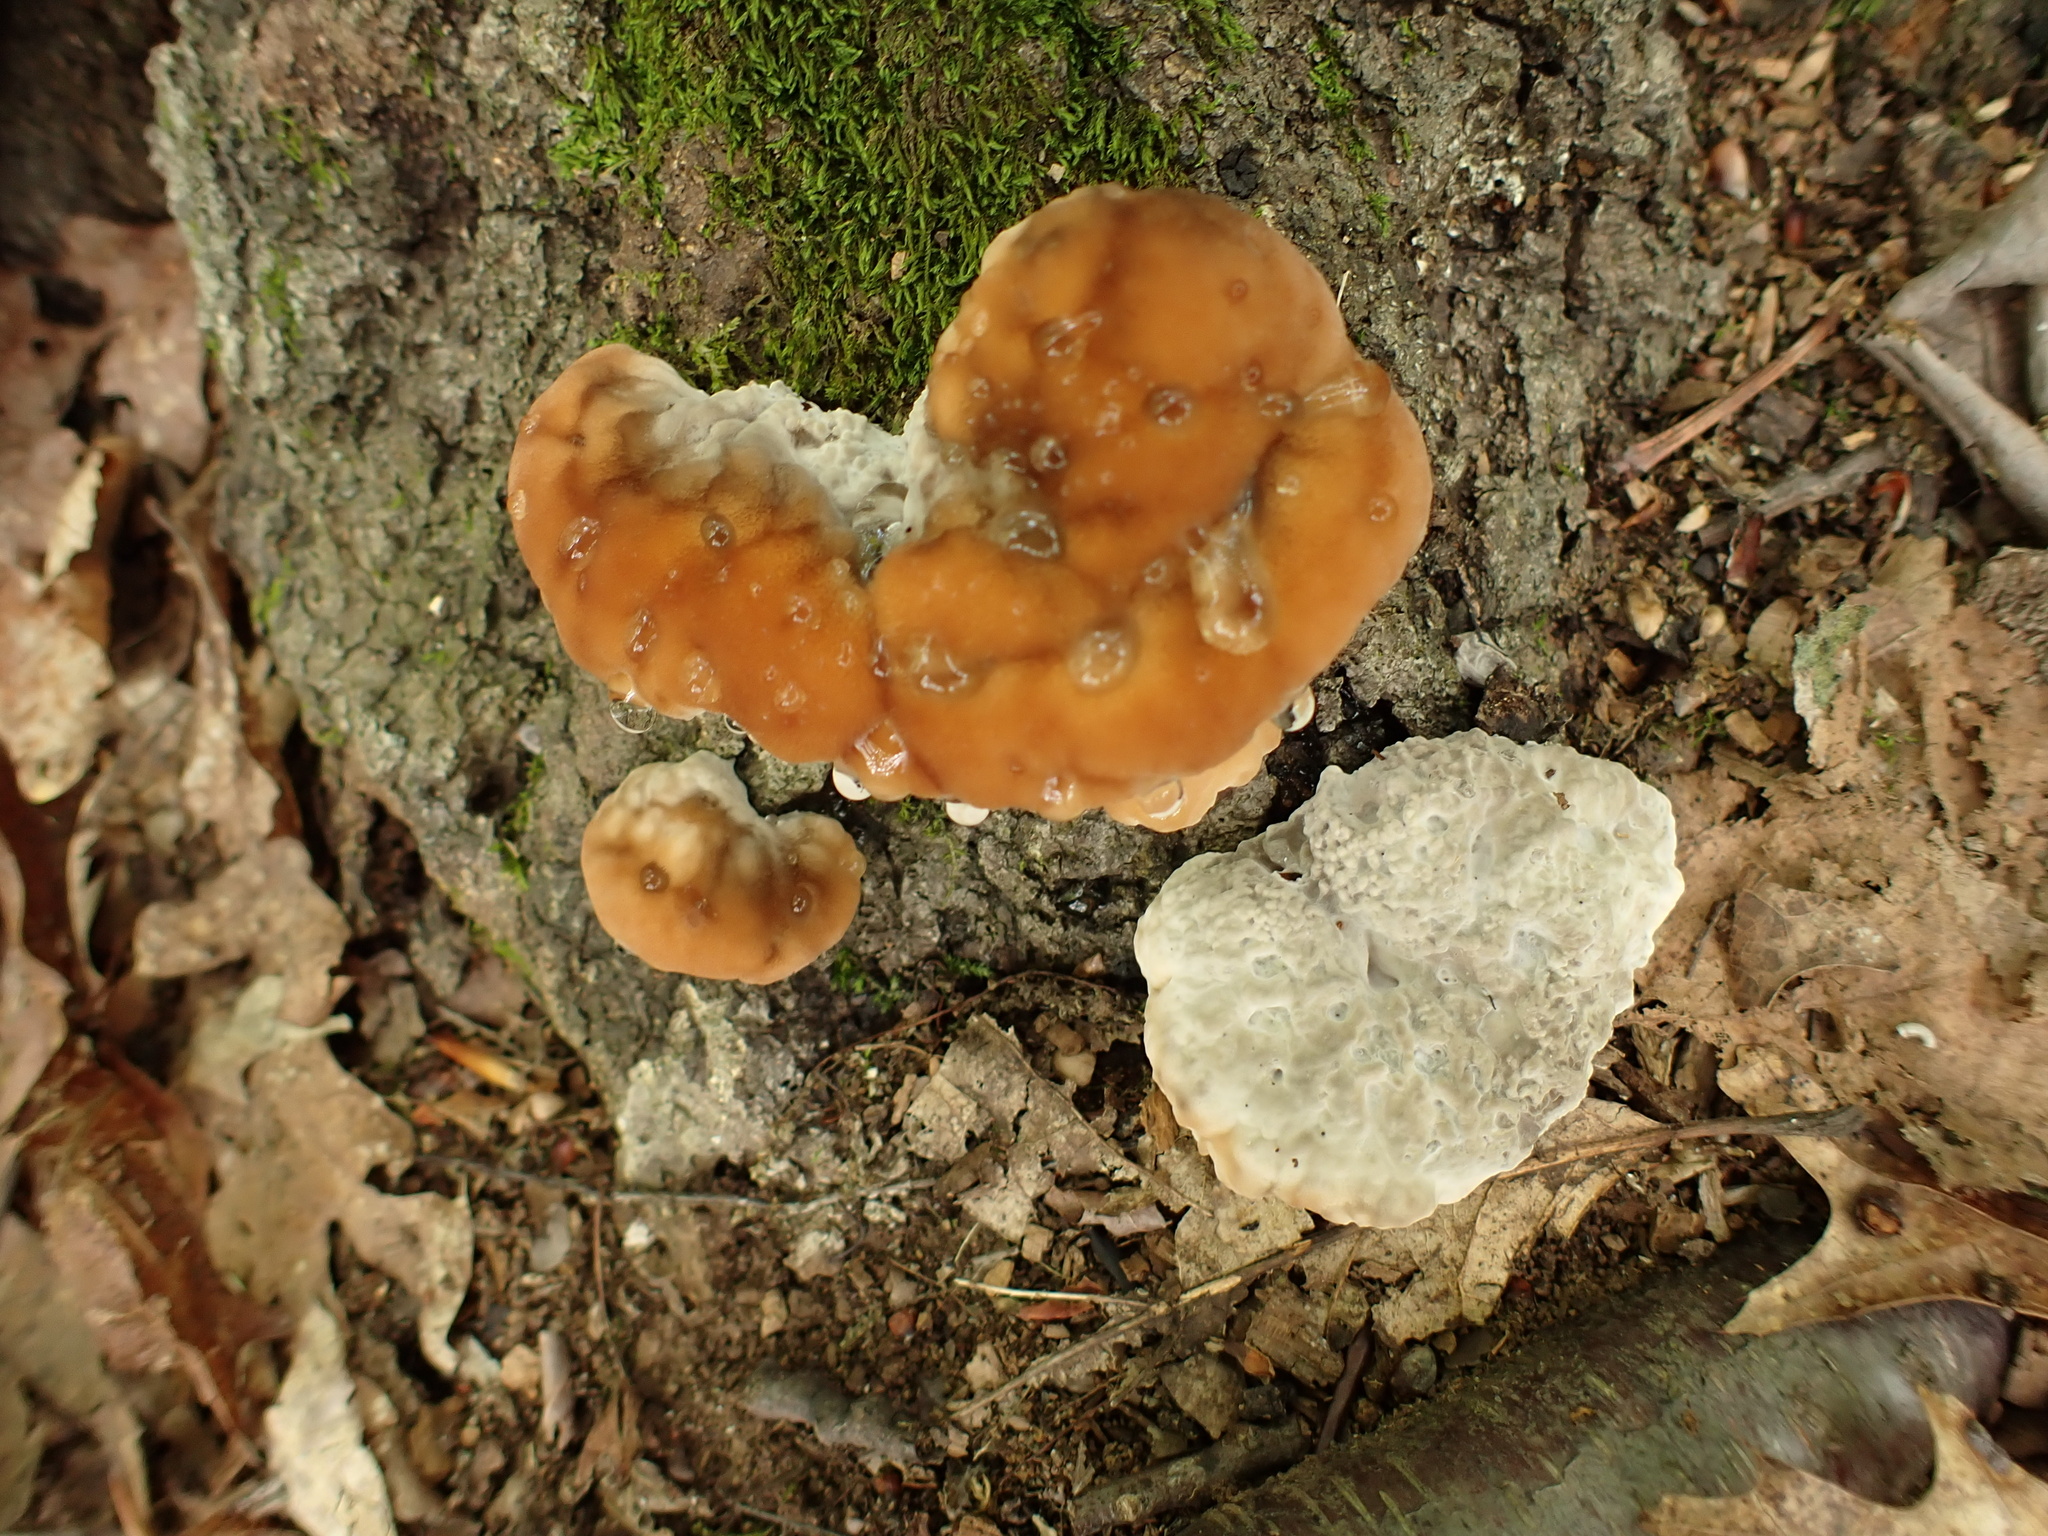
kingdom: Fungi
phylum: Basidiomycota
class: Agaricomycetes
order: Polyporales
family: Fomitopsidaceae
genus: Niveoporofomes
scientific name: Niveoporofomes spraguei
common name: Green cheese polypore
